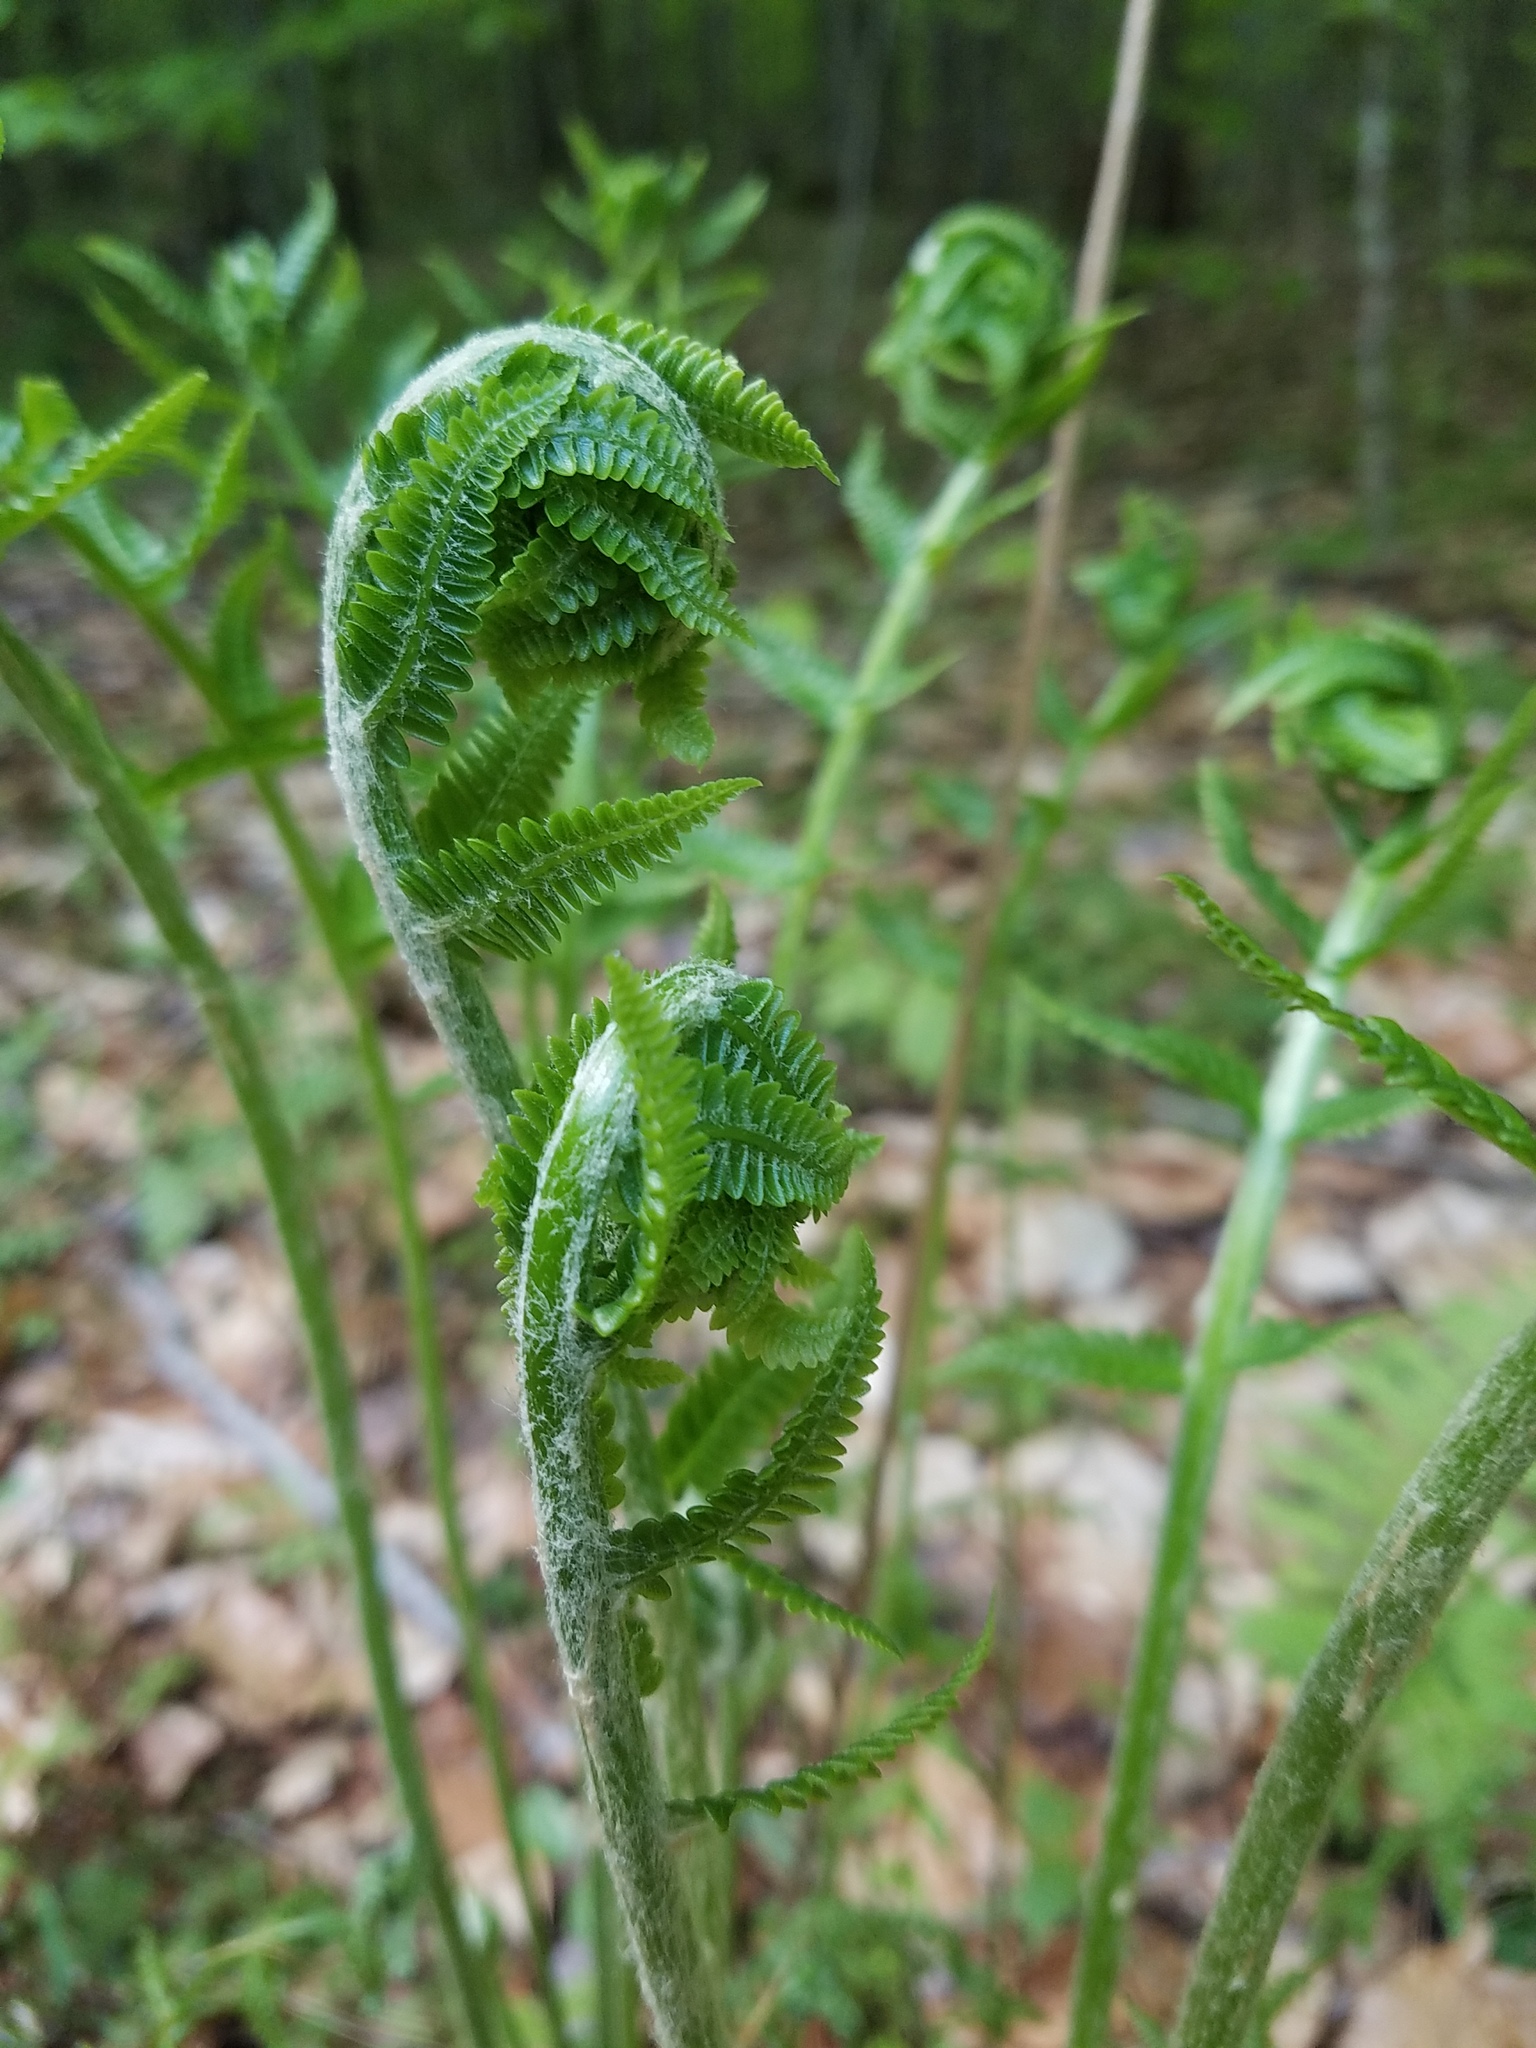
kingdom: Plantae
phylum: Tracheophyta
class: Polypodiopsida
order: Osmundales
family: Osmundaceae
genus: Osmundastrum
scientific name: Osmundastrum cinnamomeum
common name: Cinnamon fern
